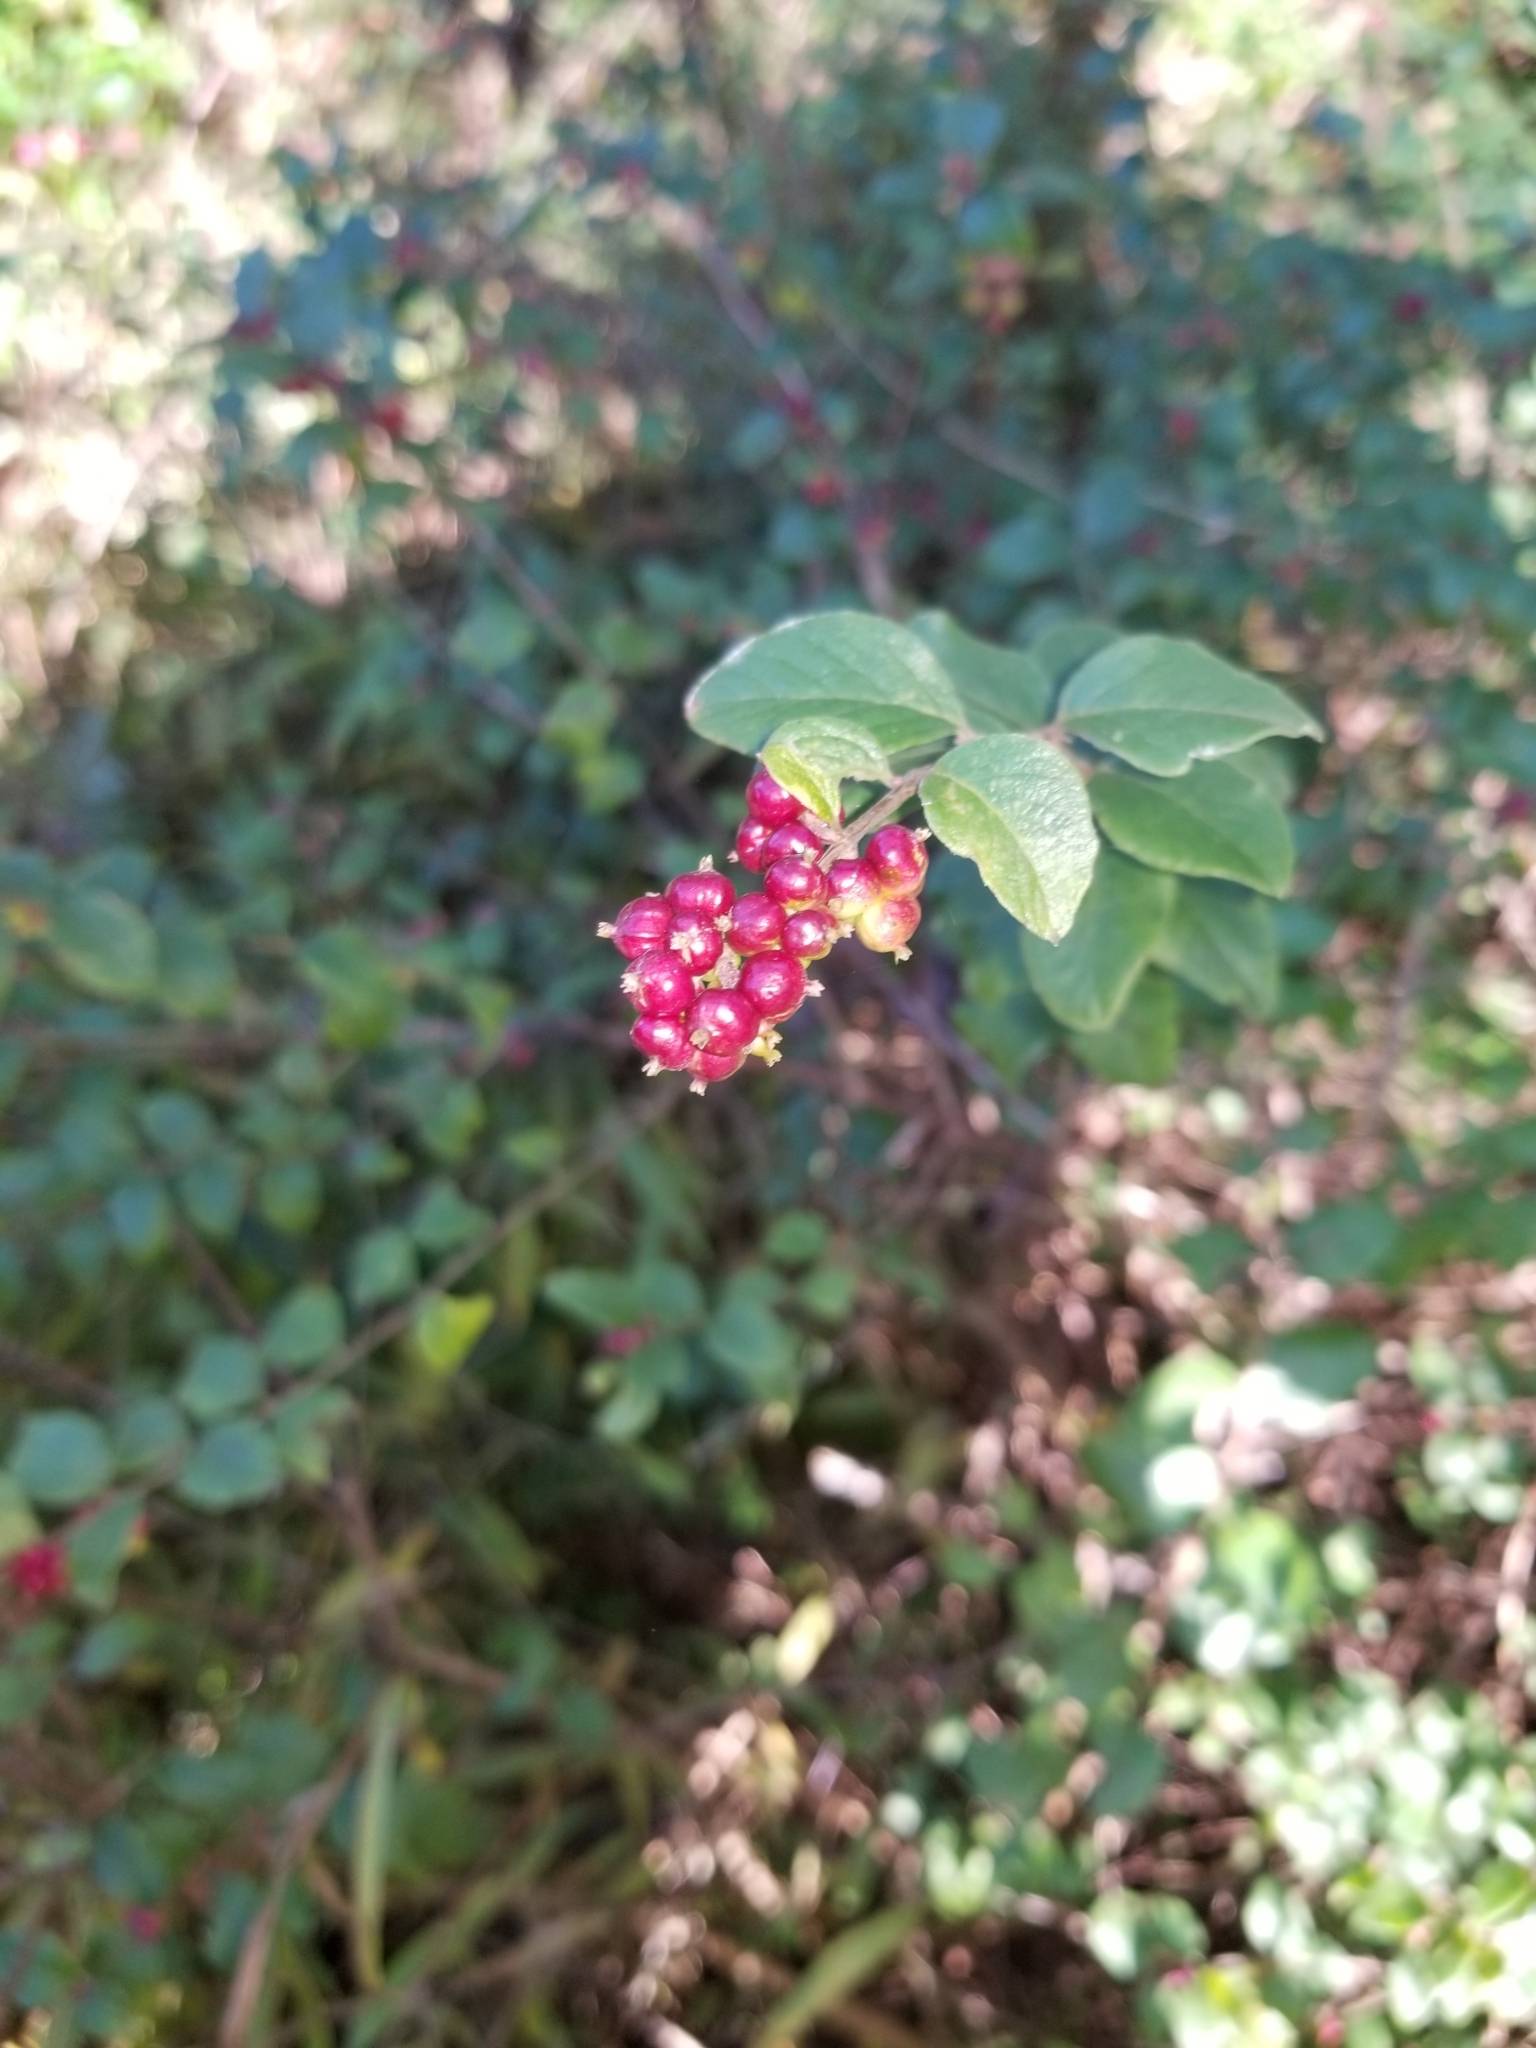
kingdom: Plantae
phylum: Tracheophyta
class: Magnoliopsida
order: Dipsacales
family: Caprifoliaceae
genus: Symphoricarpos
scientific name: Symphoricarpos orbiculatus
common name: Coralberry
